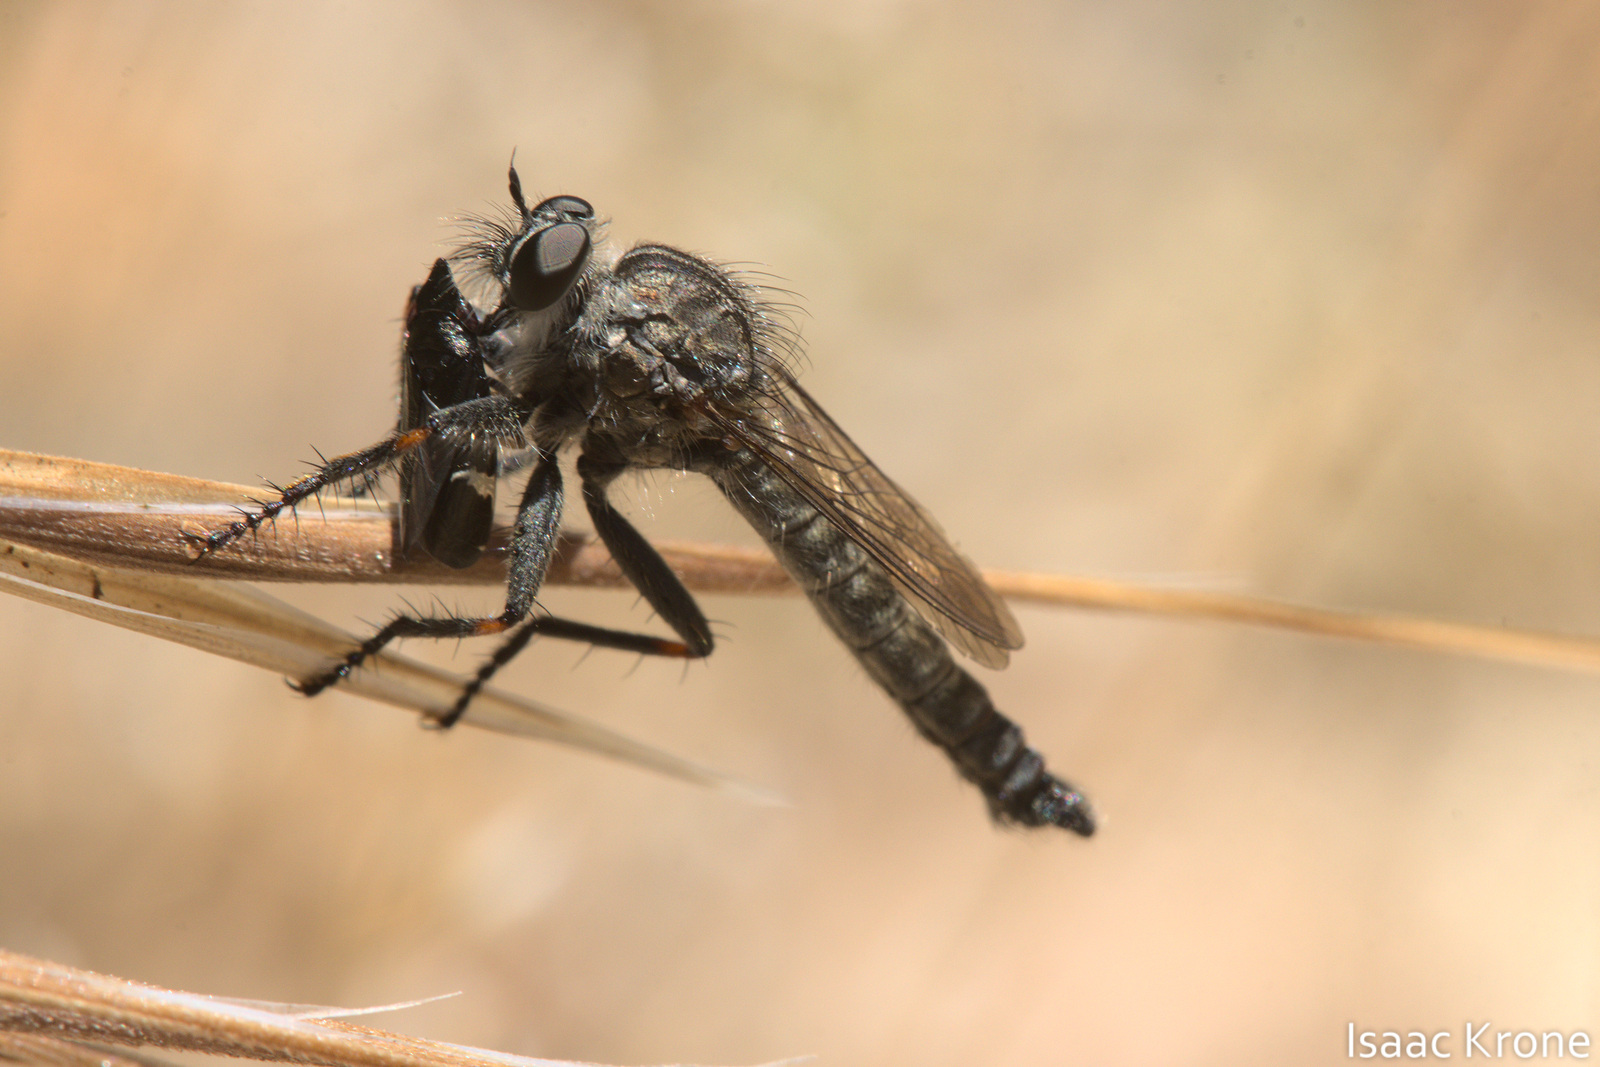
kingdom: Animalia
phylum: Arthropoda
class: Insecta
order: Hemiptera
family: Cicadellidae
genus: Cochlorhinus
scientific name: Cochlorhinus pluto
